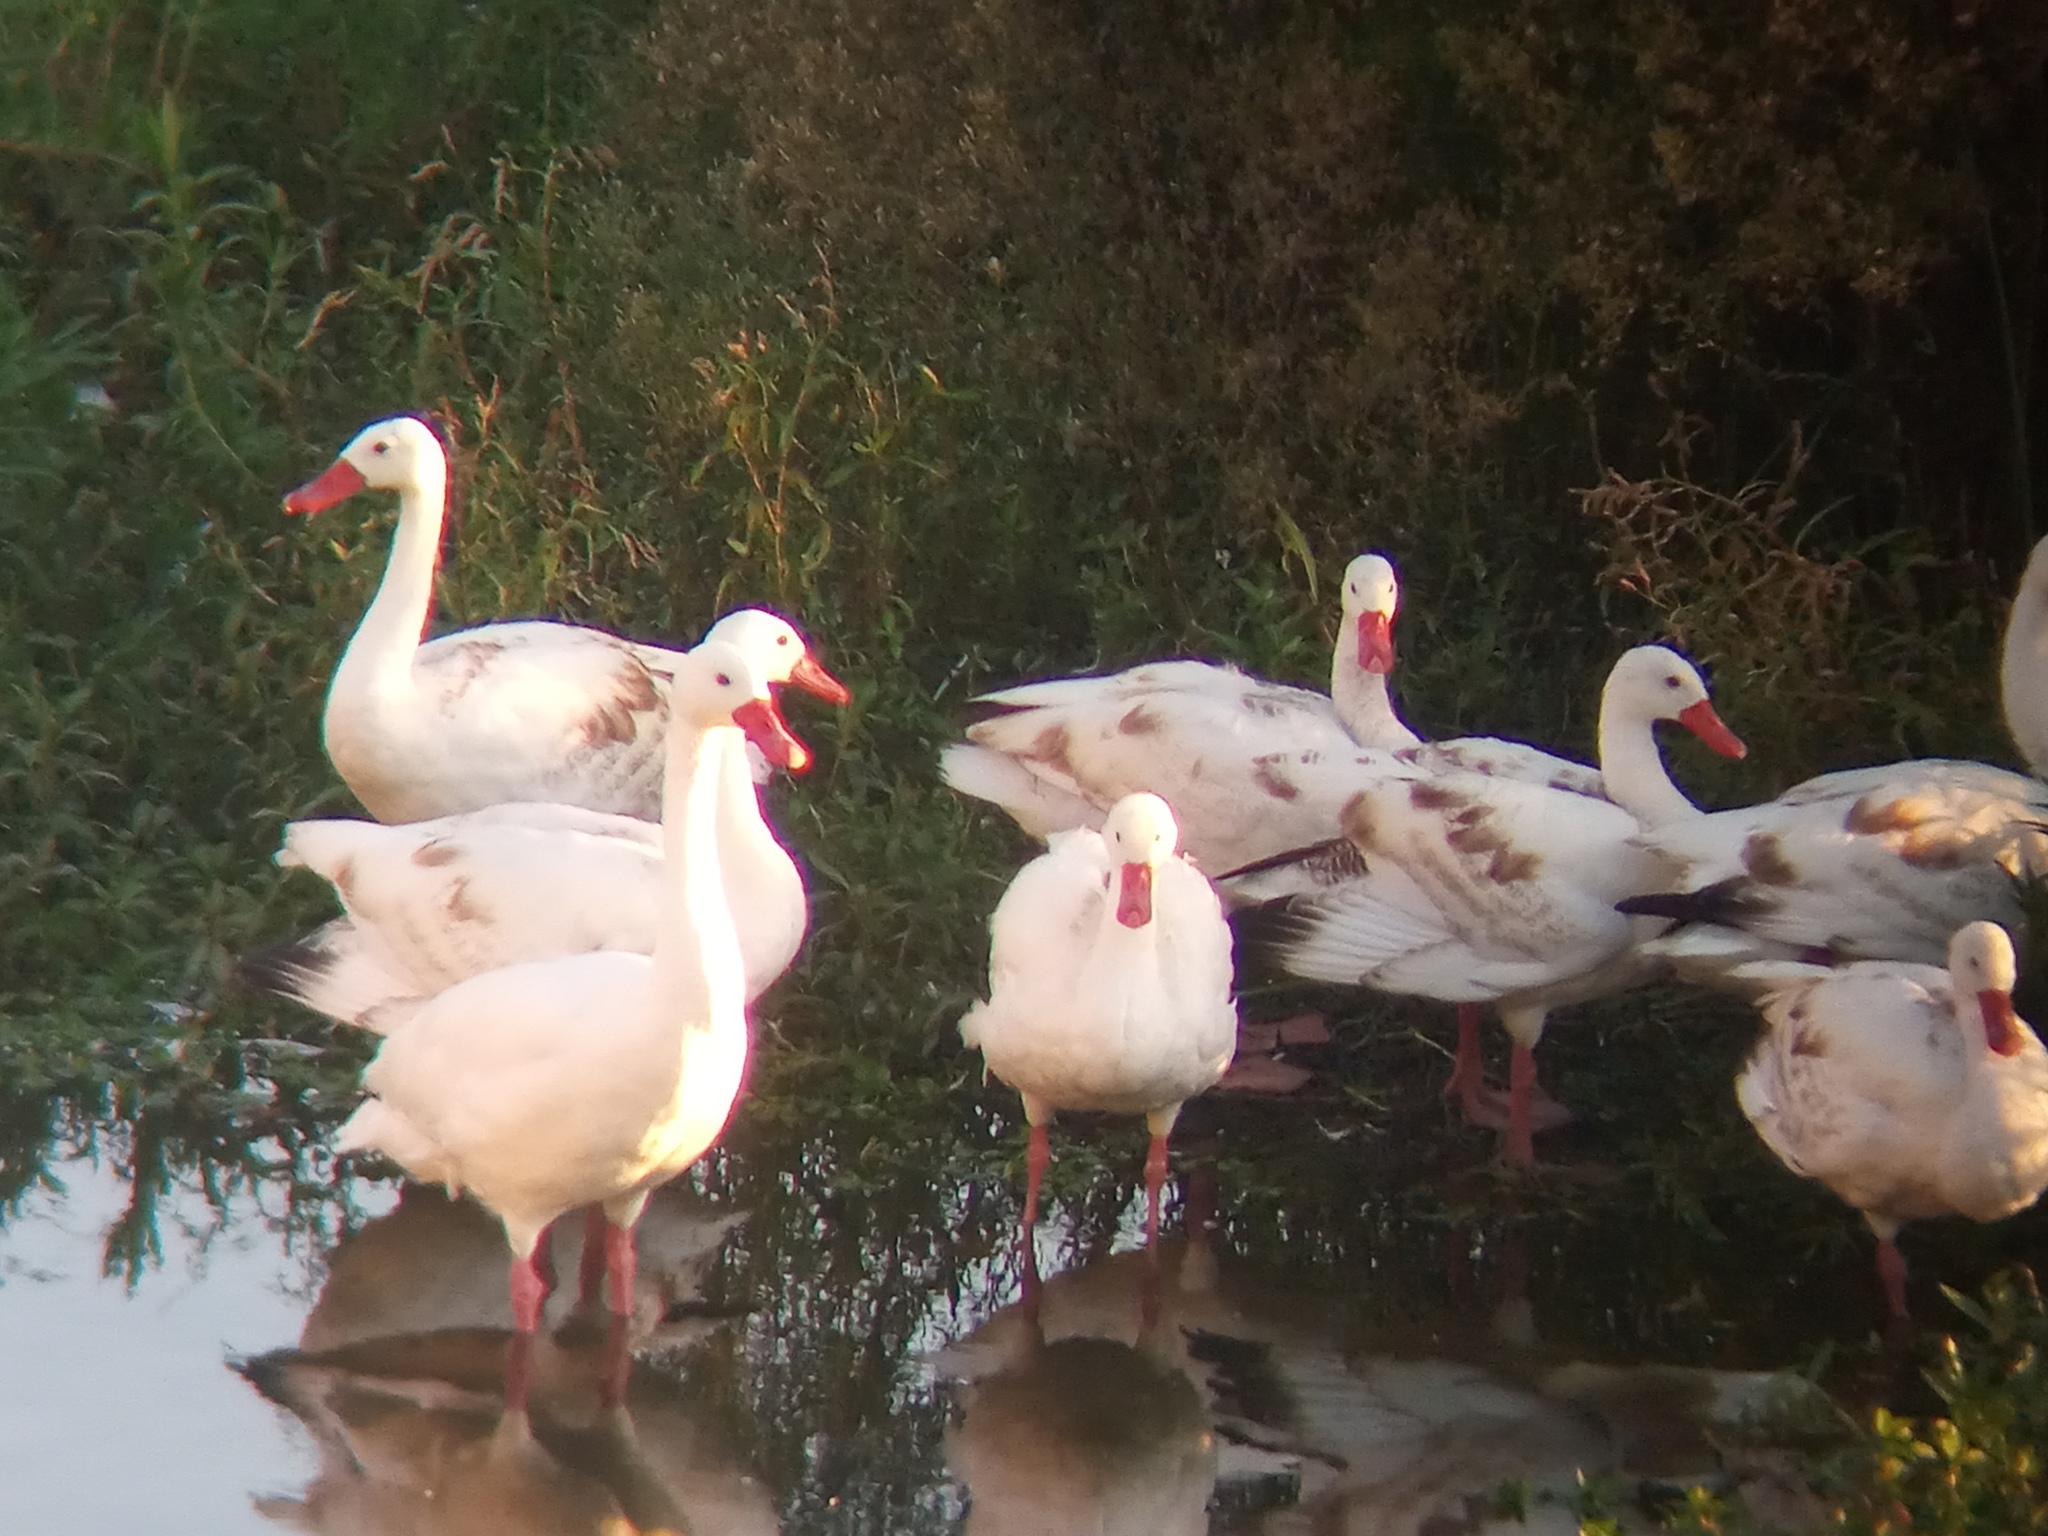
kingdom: Animalia
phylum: Chordata
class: Aves
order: Anseriformes
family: Anatidae
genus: Coscoroba
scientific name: Coscoroba coscoroba
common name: Coscoroba swan
